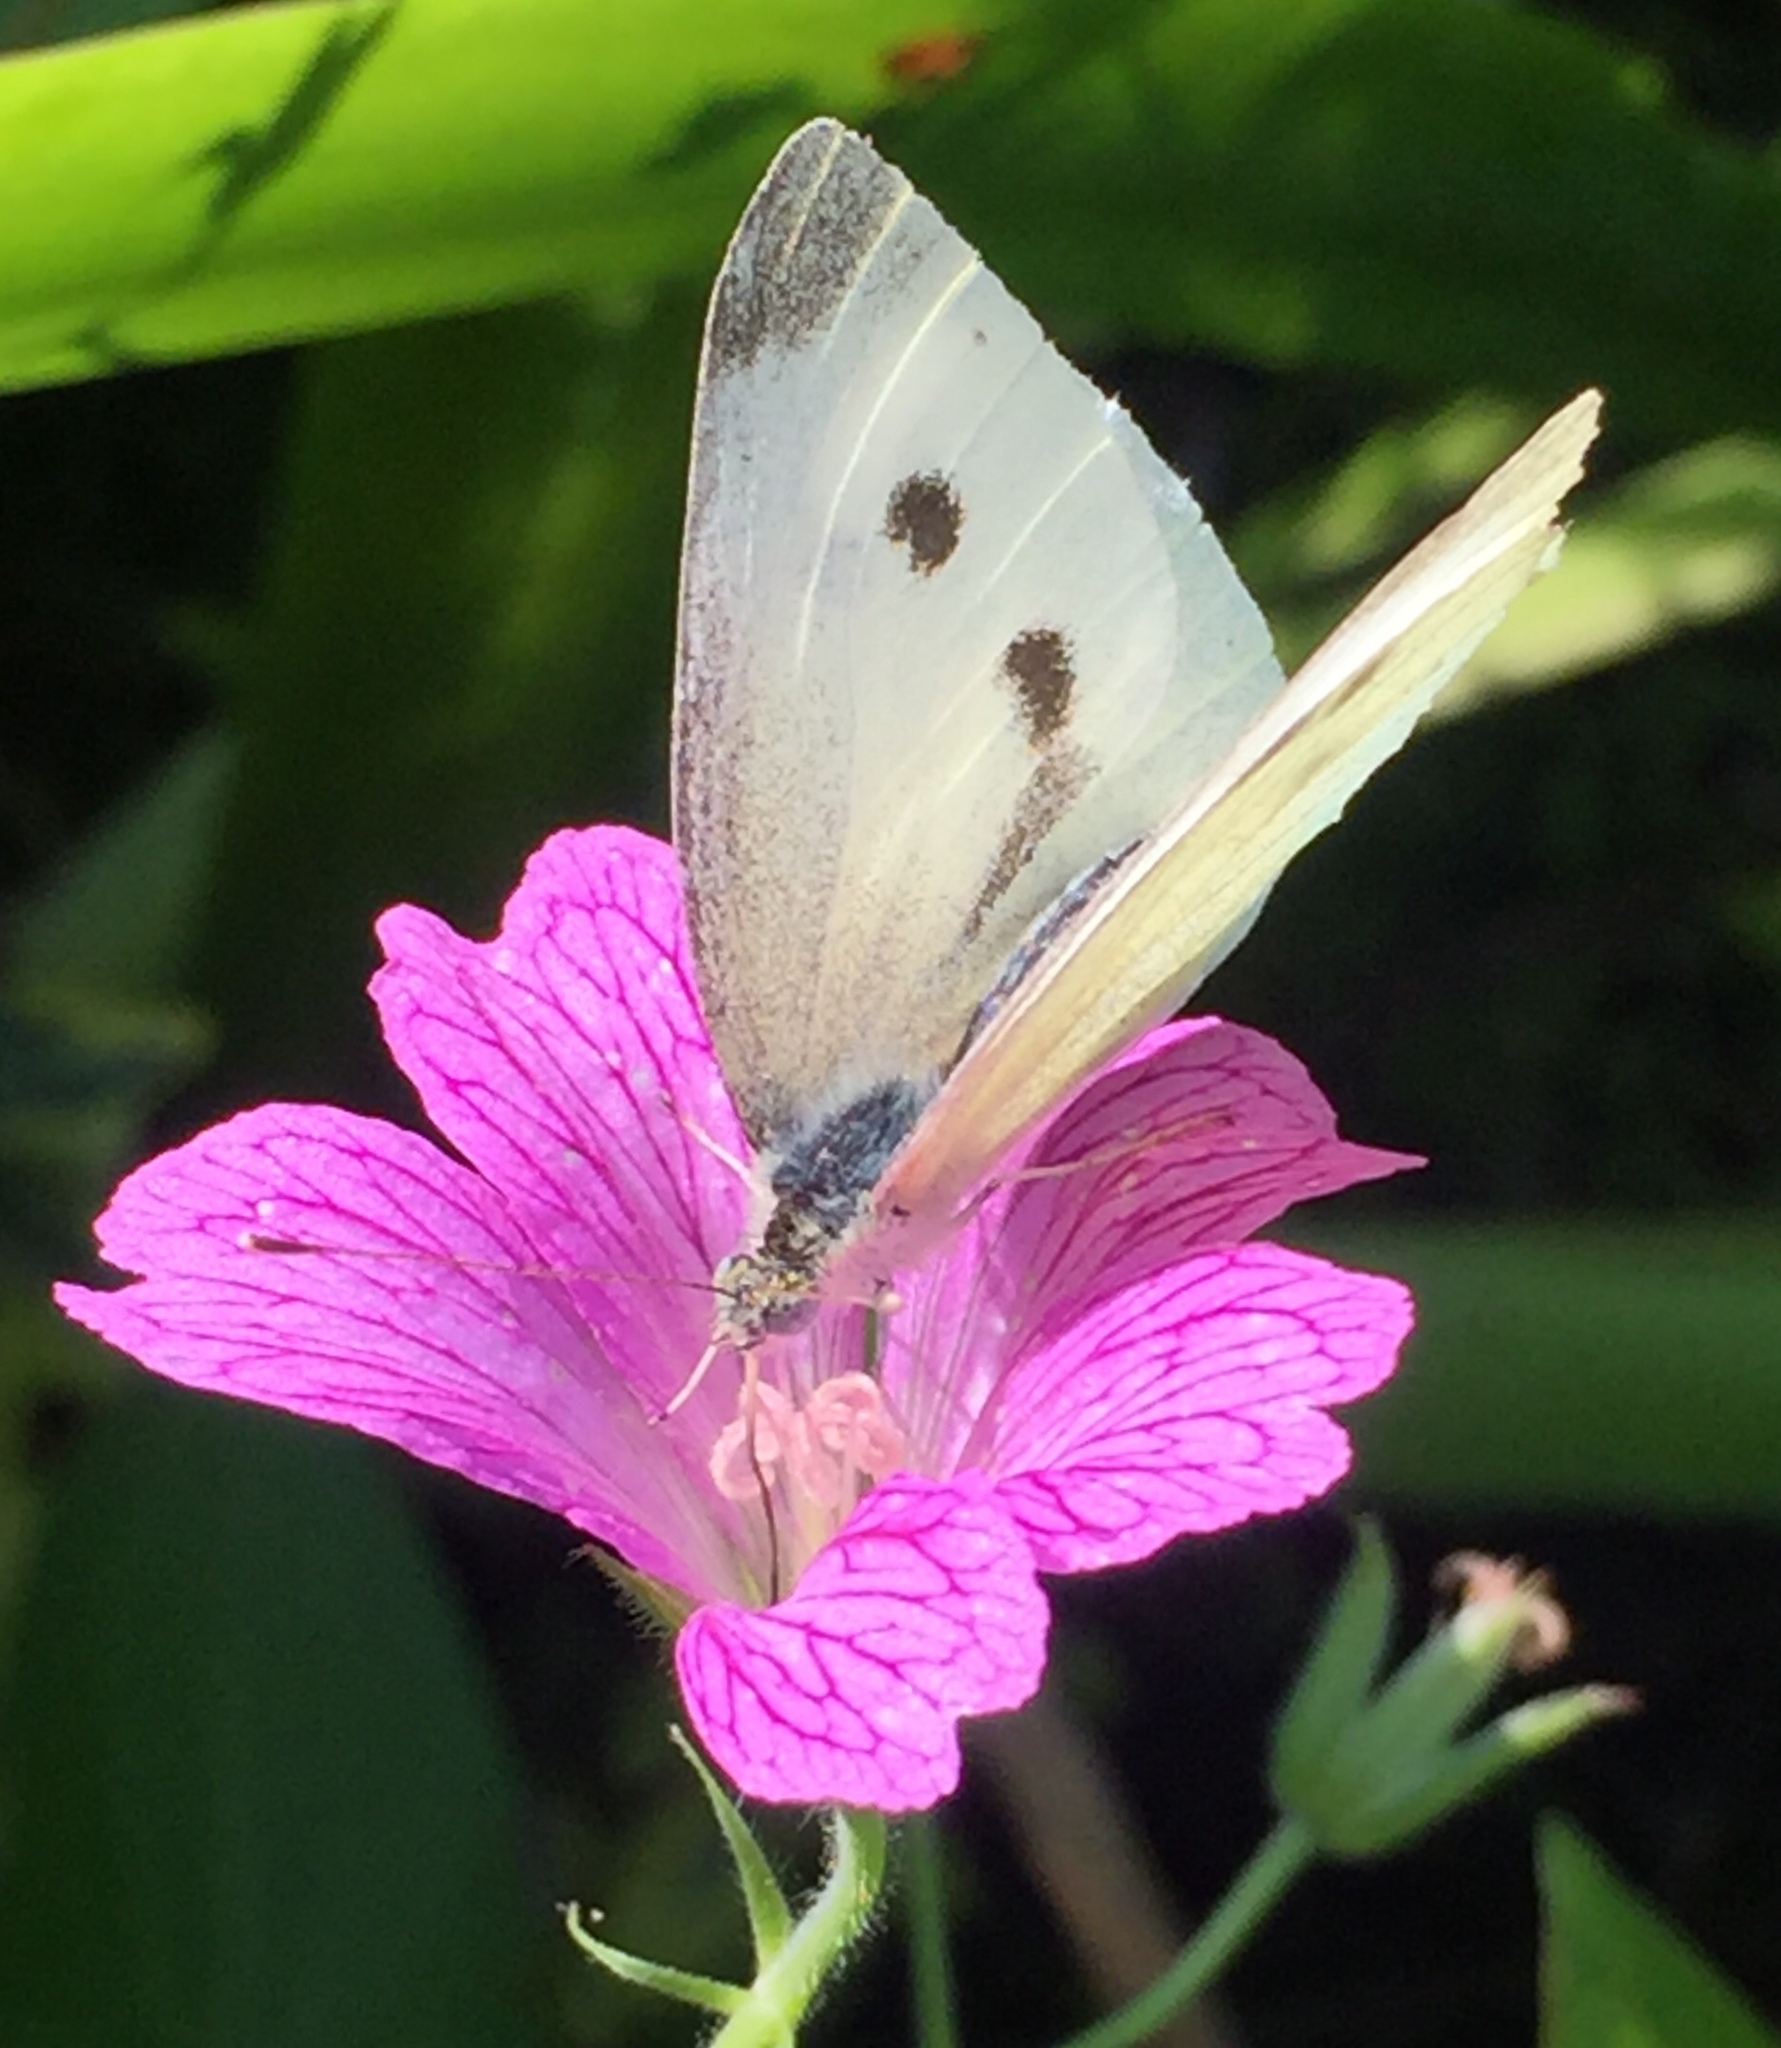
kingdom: Animalia
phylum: Arthropoda
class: Insecta
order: Lepidoptera
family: Pieridae
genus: Pieris
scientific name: Pieris rapae
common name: Small white
